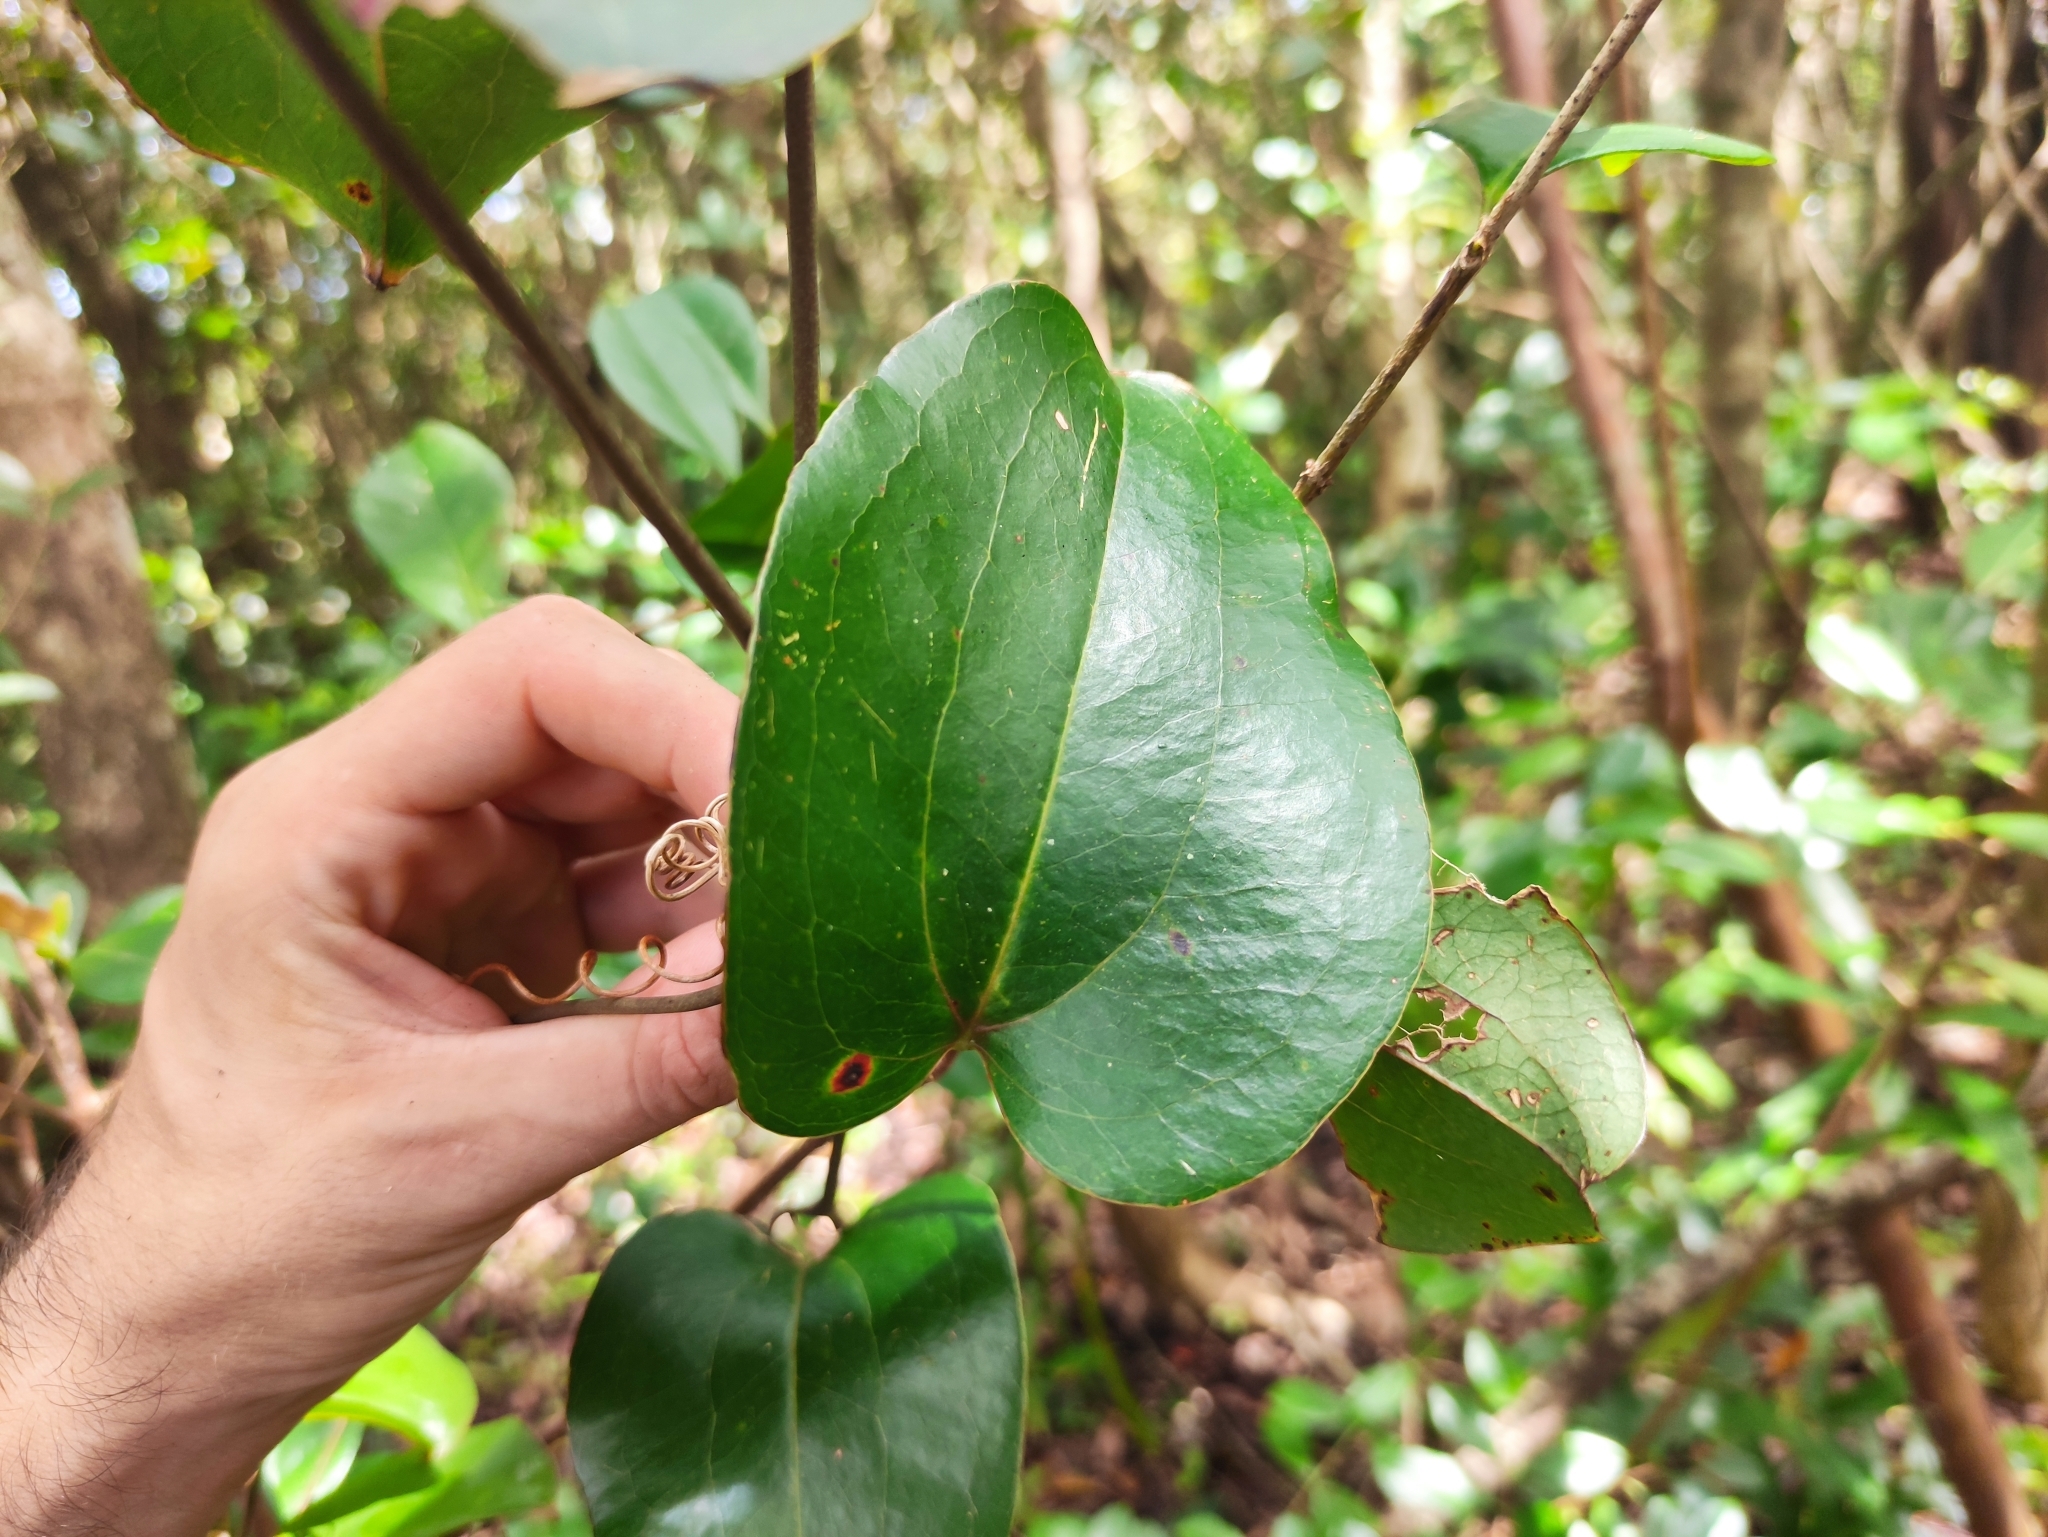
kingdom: Plantae
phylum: Tracheophyta
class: Liliopsida
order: Liliales
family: Smilacaceae
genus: Smilax
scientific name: Smilax anceps
